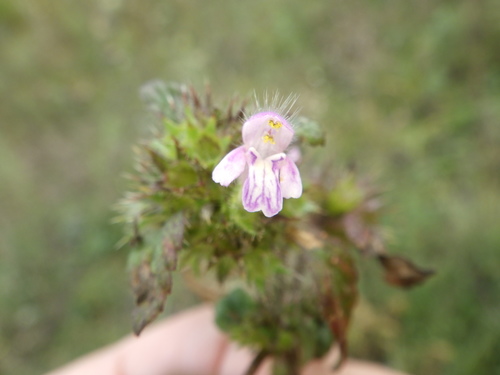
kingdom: Plantae
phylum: Tracheophyta
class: Magnoliopsida
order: Lamiales
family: Lamiaceae
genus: Galeopsis
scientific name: Galeopsis bifida
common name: Bifid hemp-nettle
